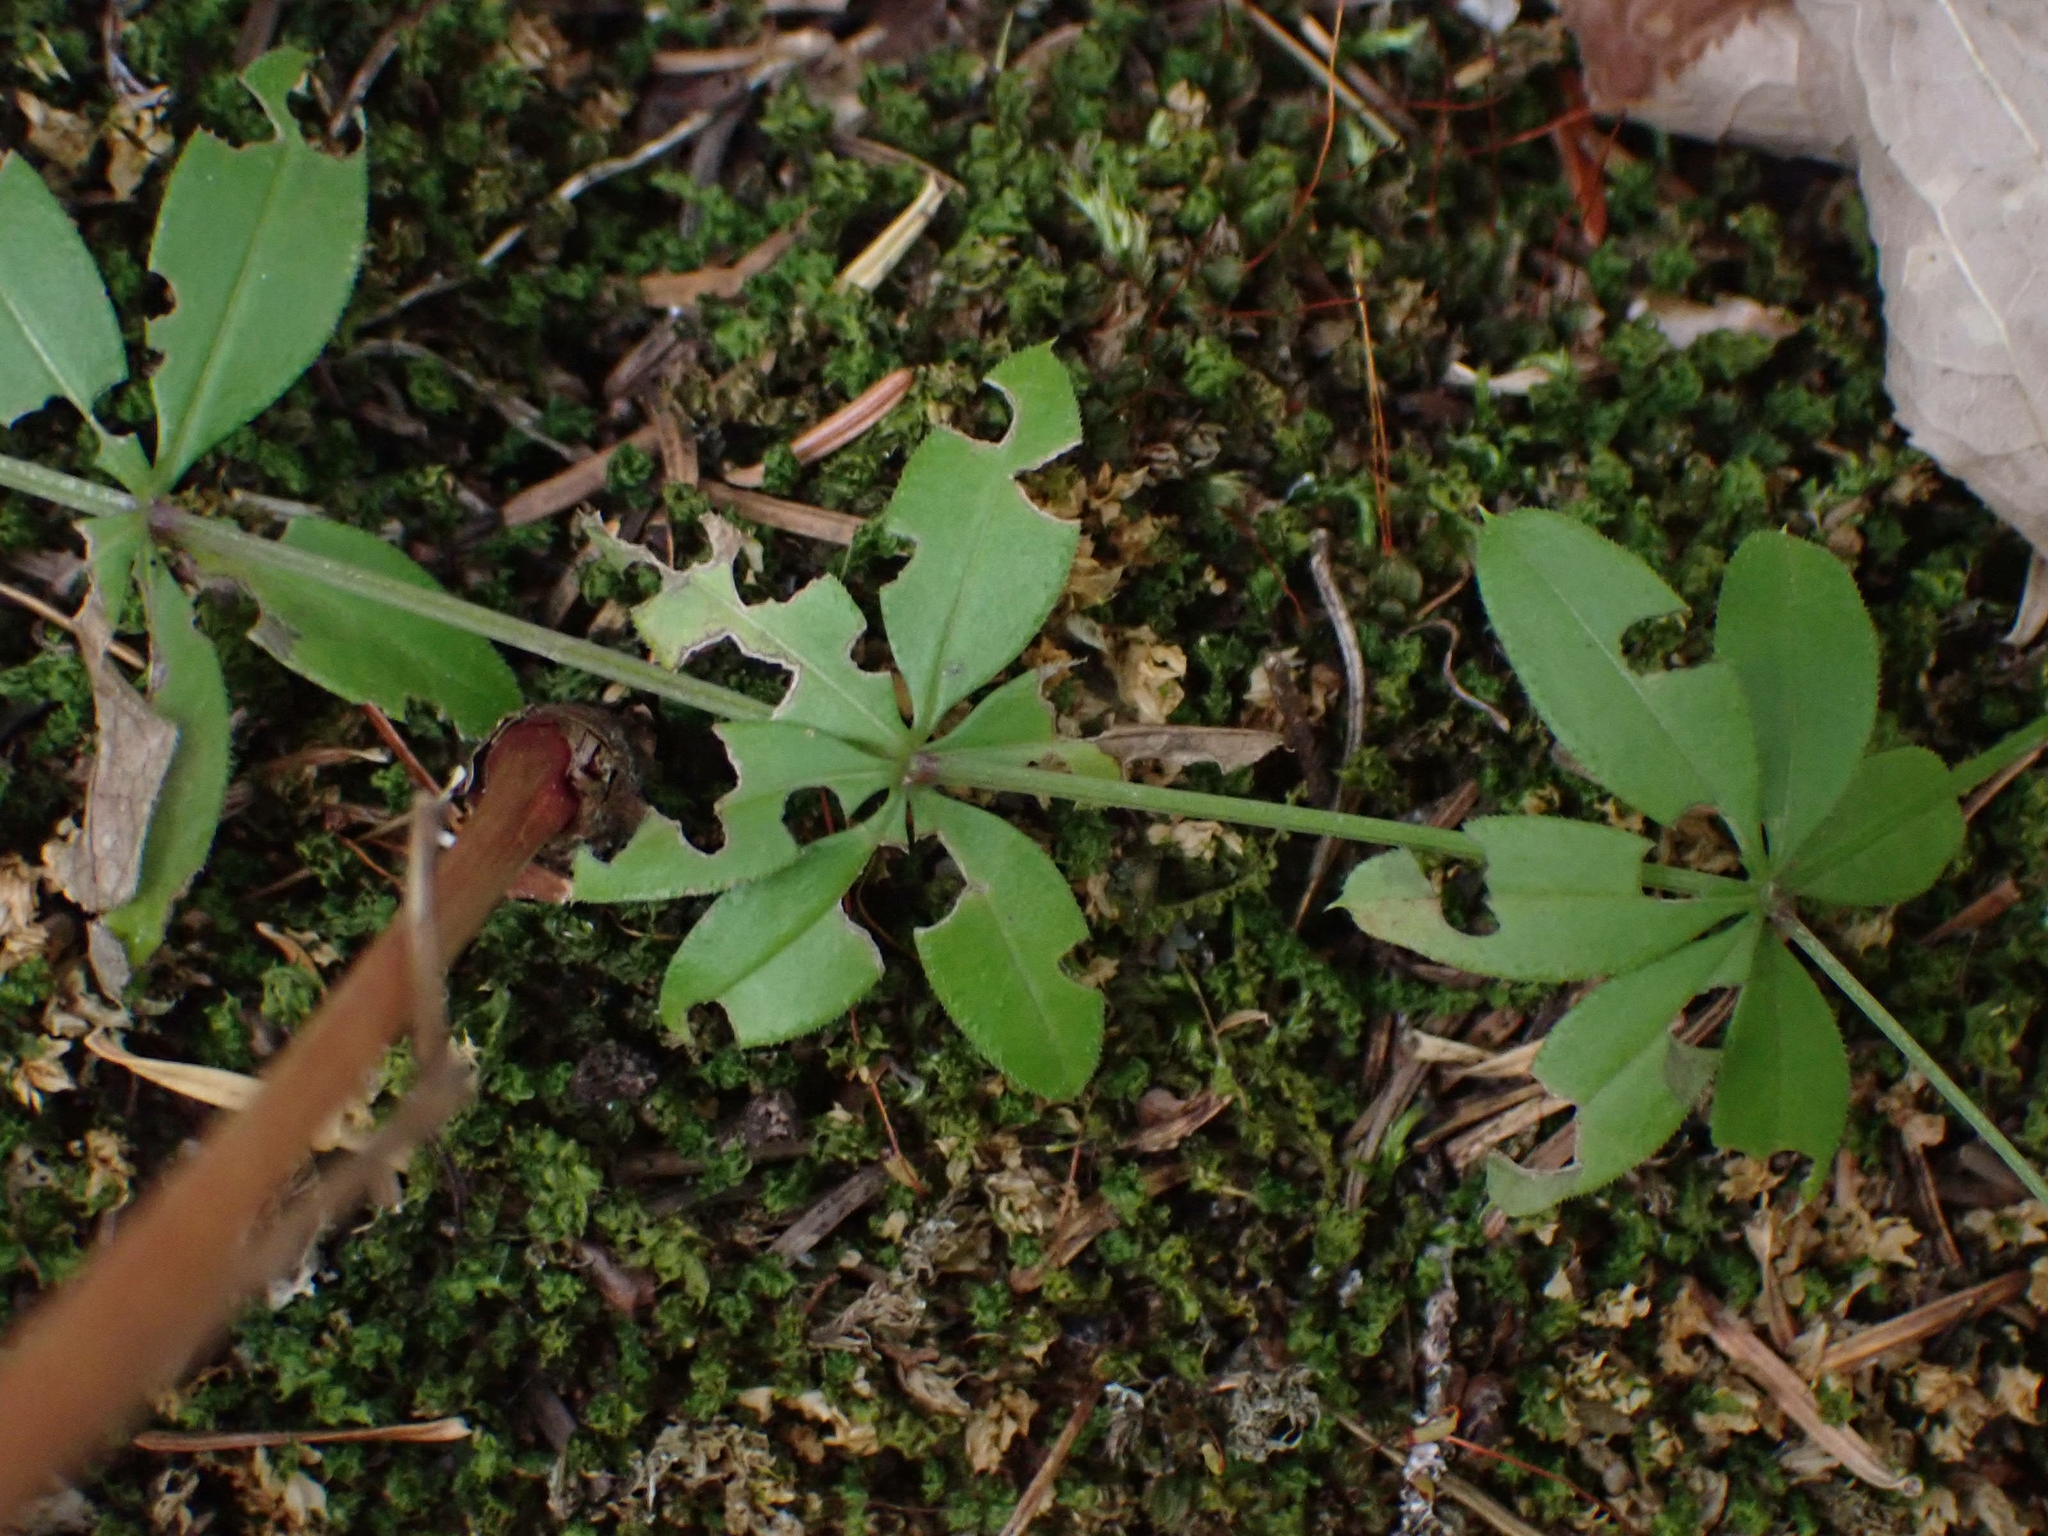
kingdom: Plantae
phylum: Tracheophyta
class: Magnoliopsida
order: Gentianales
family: Rubiaceae
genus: Galium
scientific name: Galium triflorum
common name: Fragrant bedstraw
